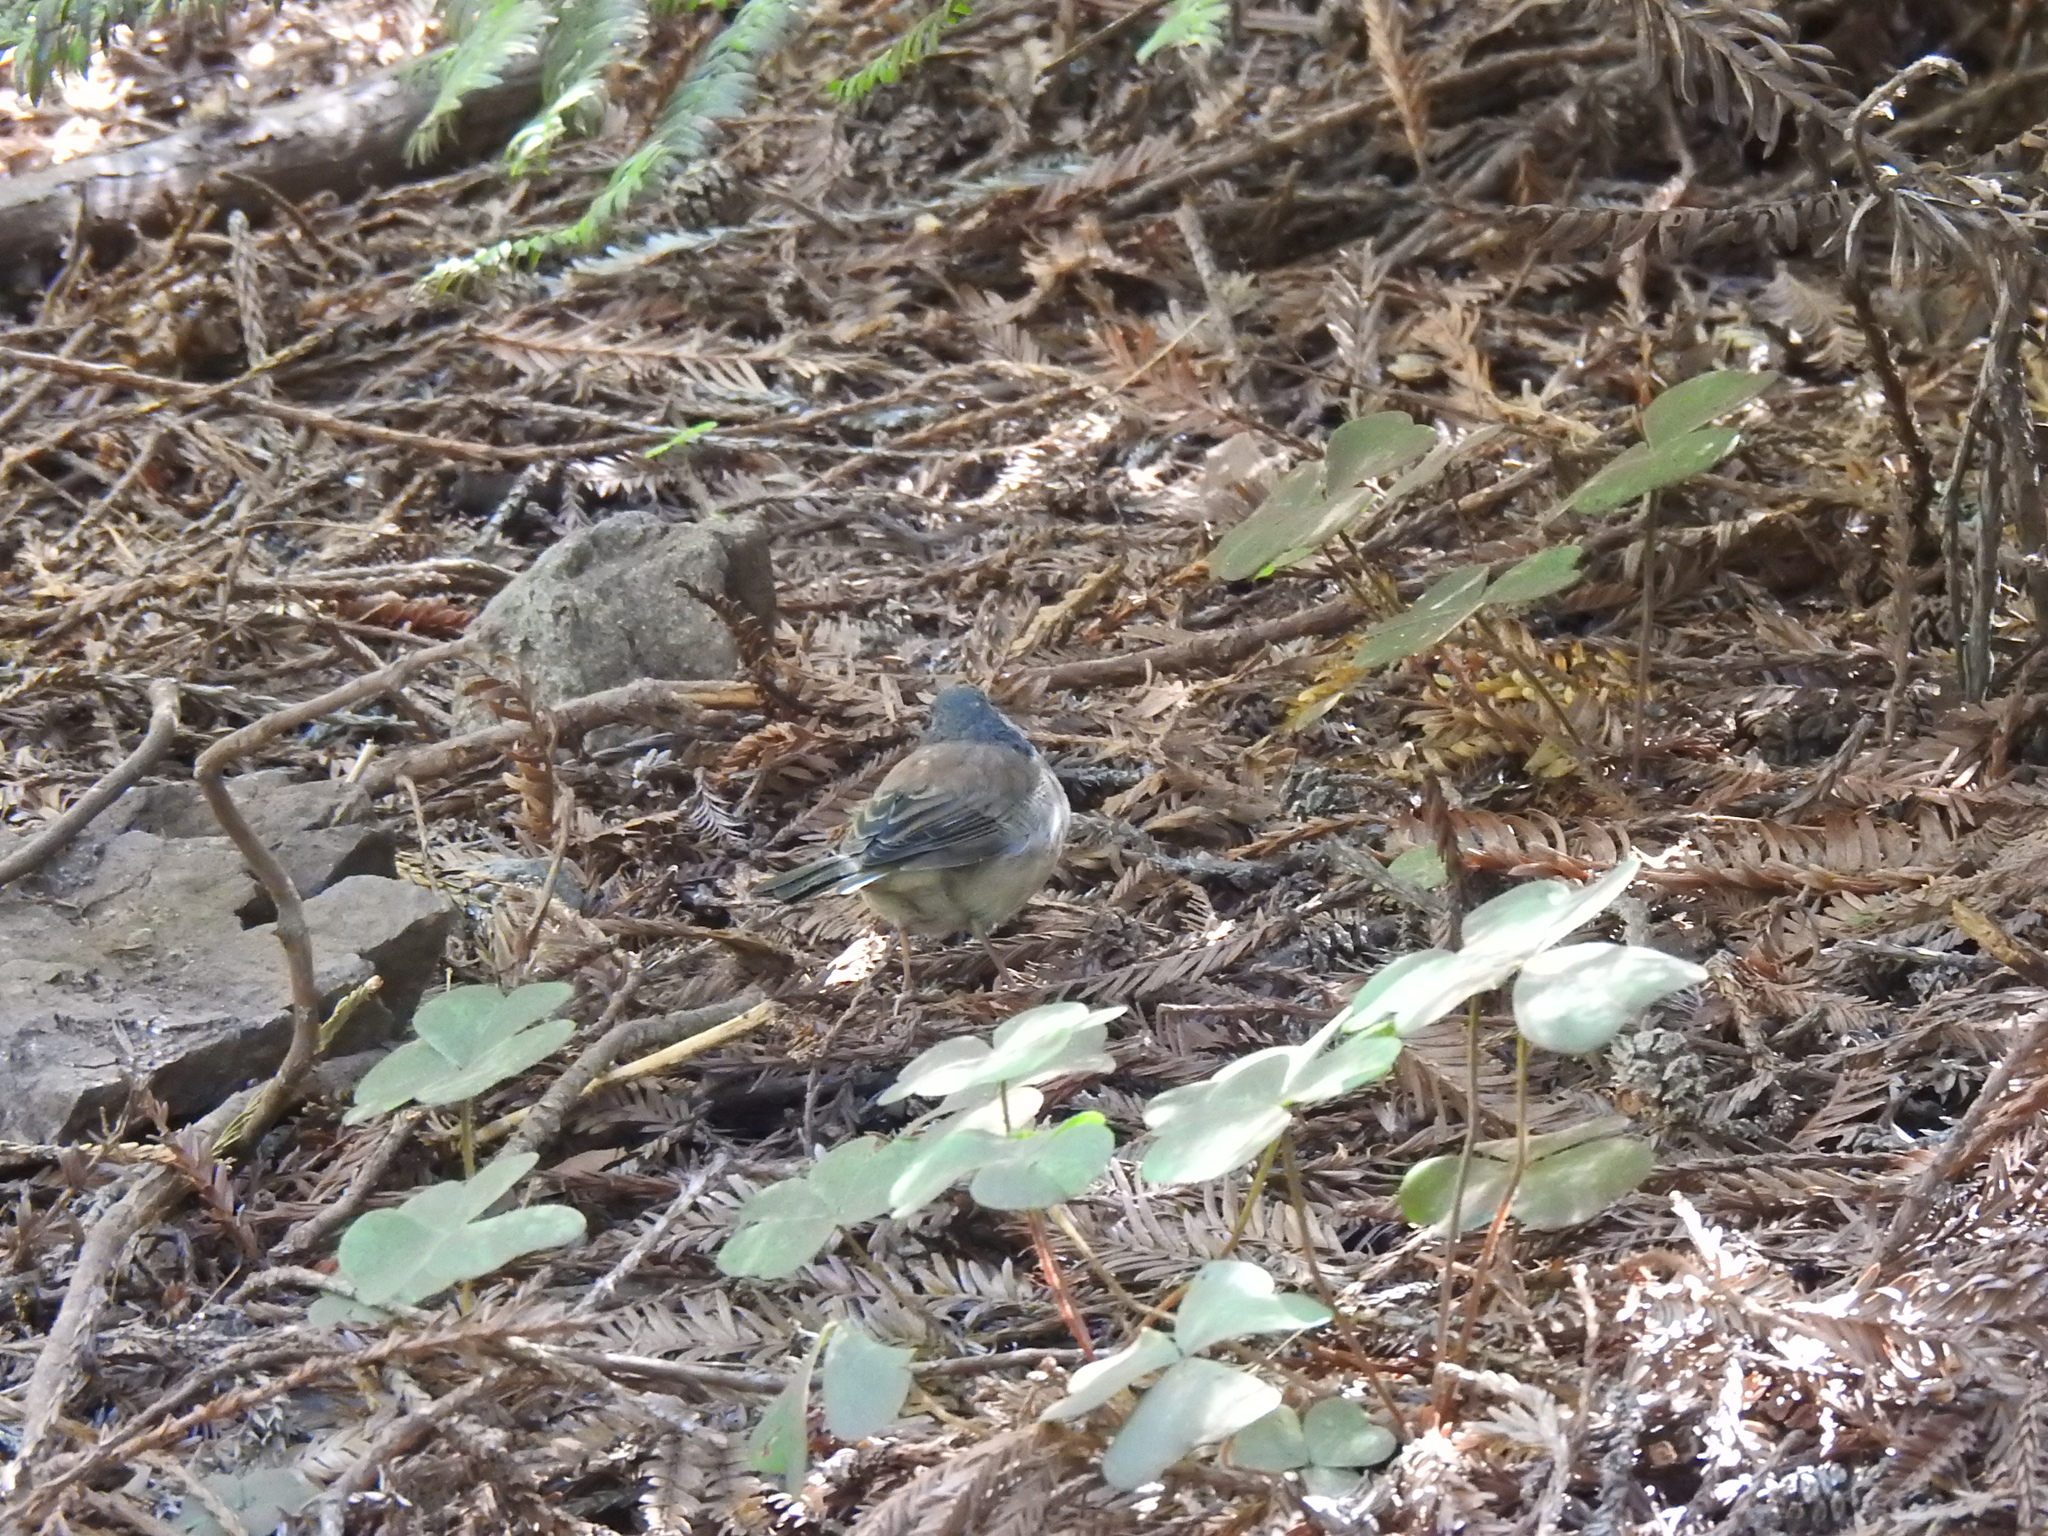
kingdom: Animalia
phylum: Chordata
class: Aves
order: Passeriformes
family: Passerellidae
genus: Junco
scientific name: Junco hyemalis
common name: Dark-eyed junco
